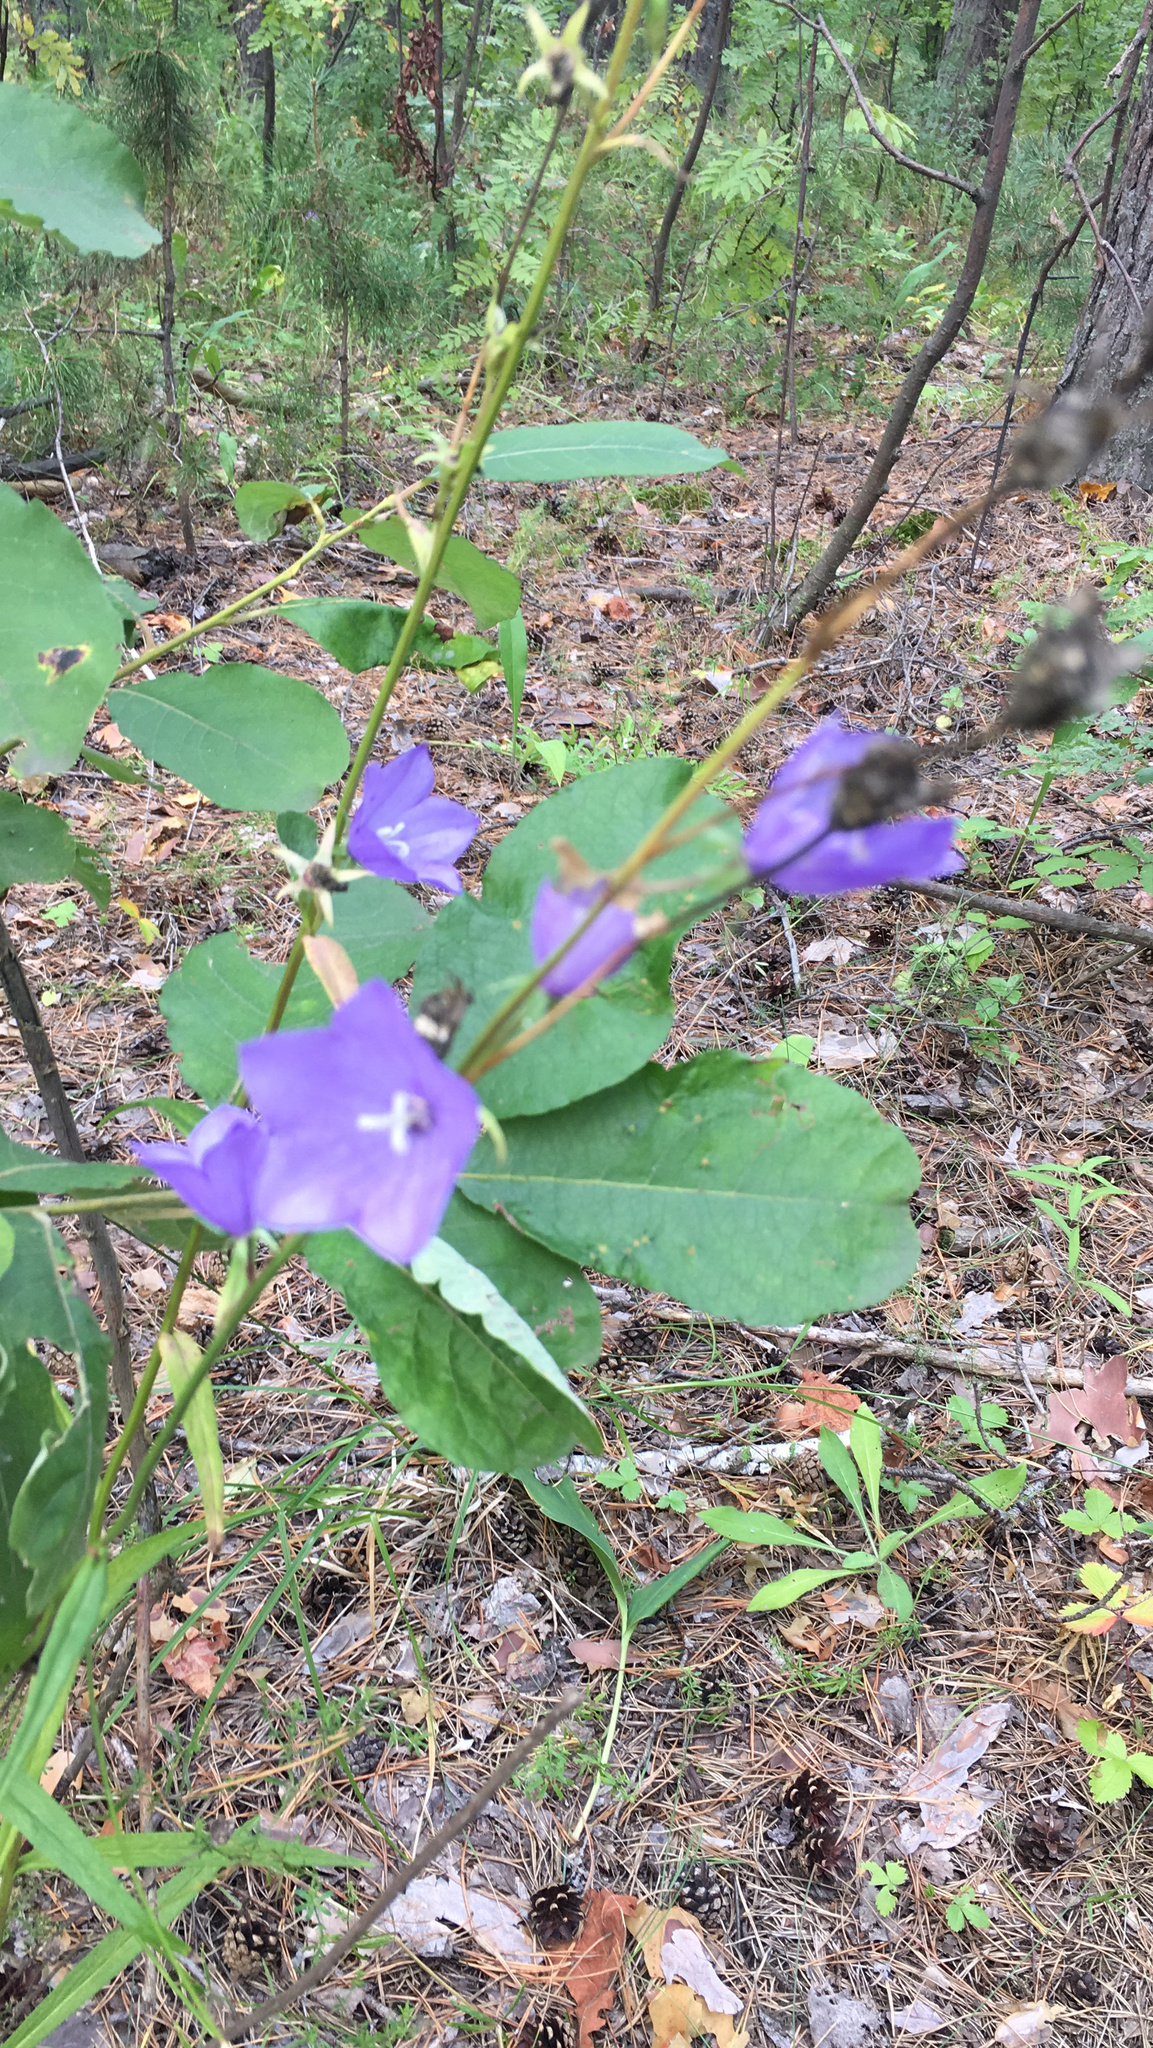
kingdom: Plantae
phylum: Tracheophyta
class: Magnoliopsida
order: Asterales
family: Campanulaceae
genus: Campanula
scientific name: Campanula persicifolia
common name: Peach-leaved bellflower
